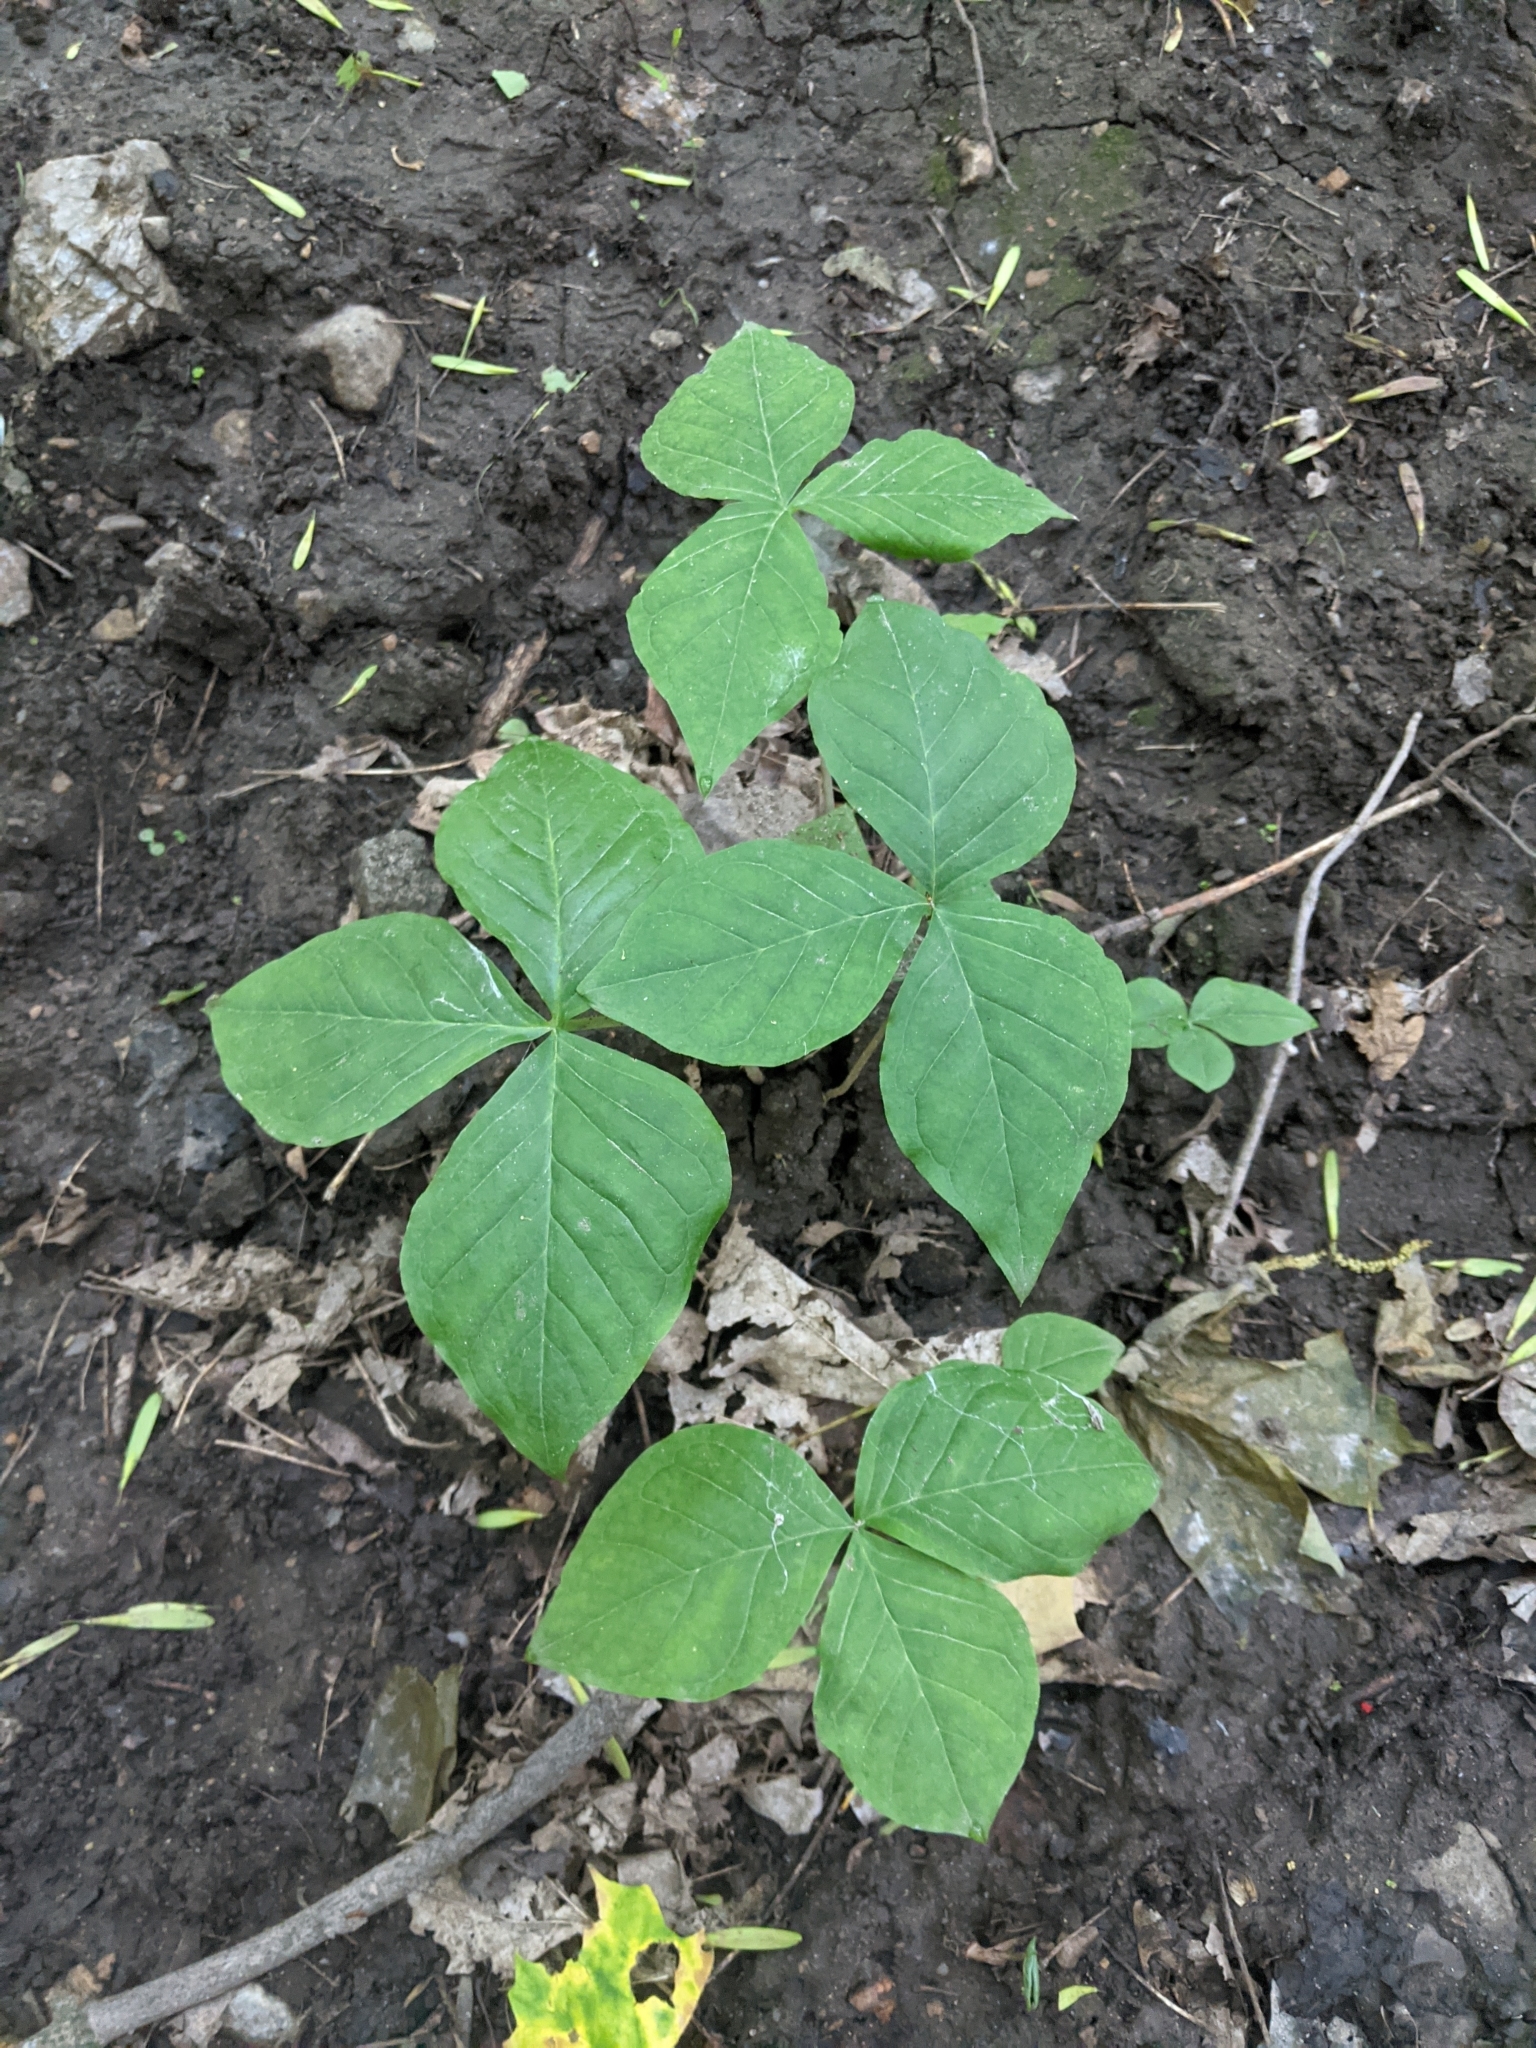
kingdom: Plantae
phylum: Tracheophyta
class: Liliopsida
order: Alismatales
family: Araceae
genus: Arisaema
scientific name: Arisaema triphyllum
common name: Jack-in-the-pulpit
